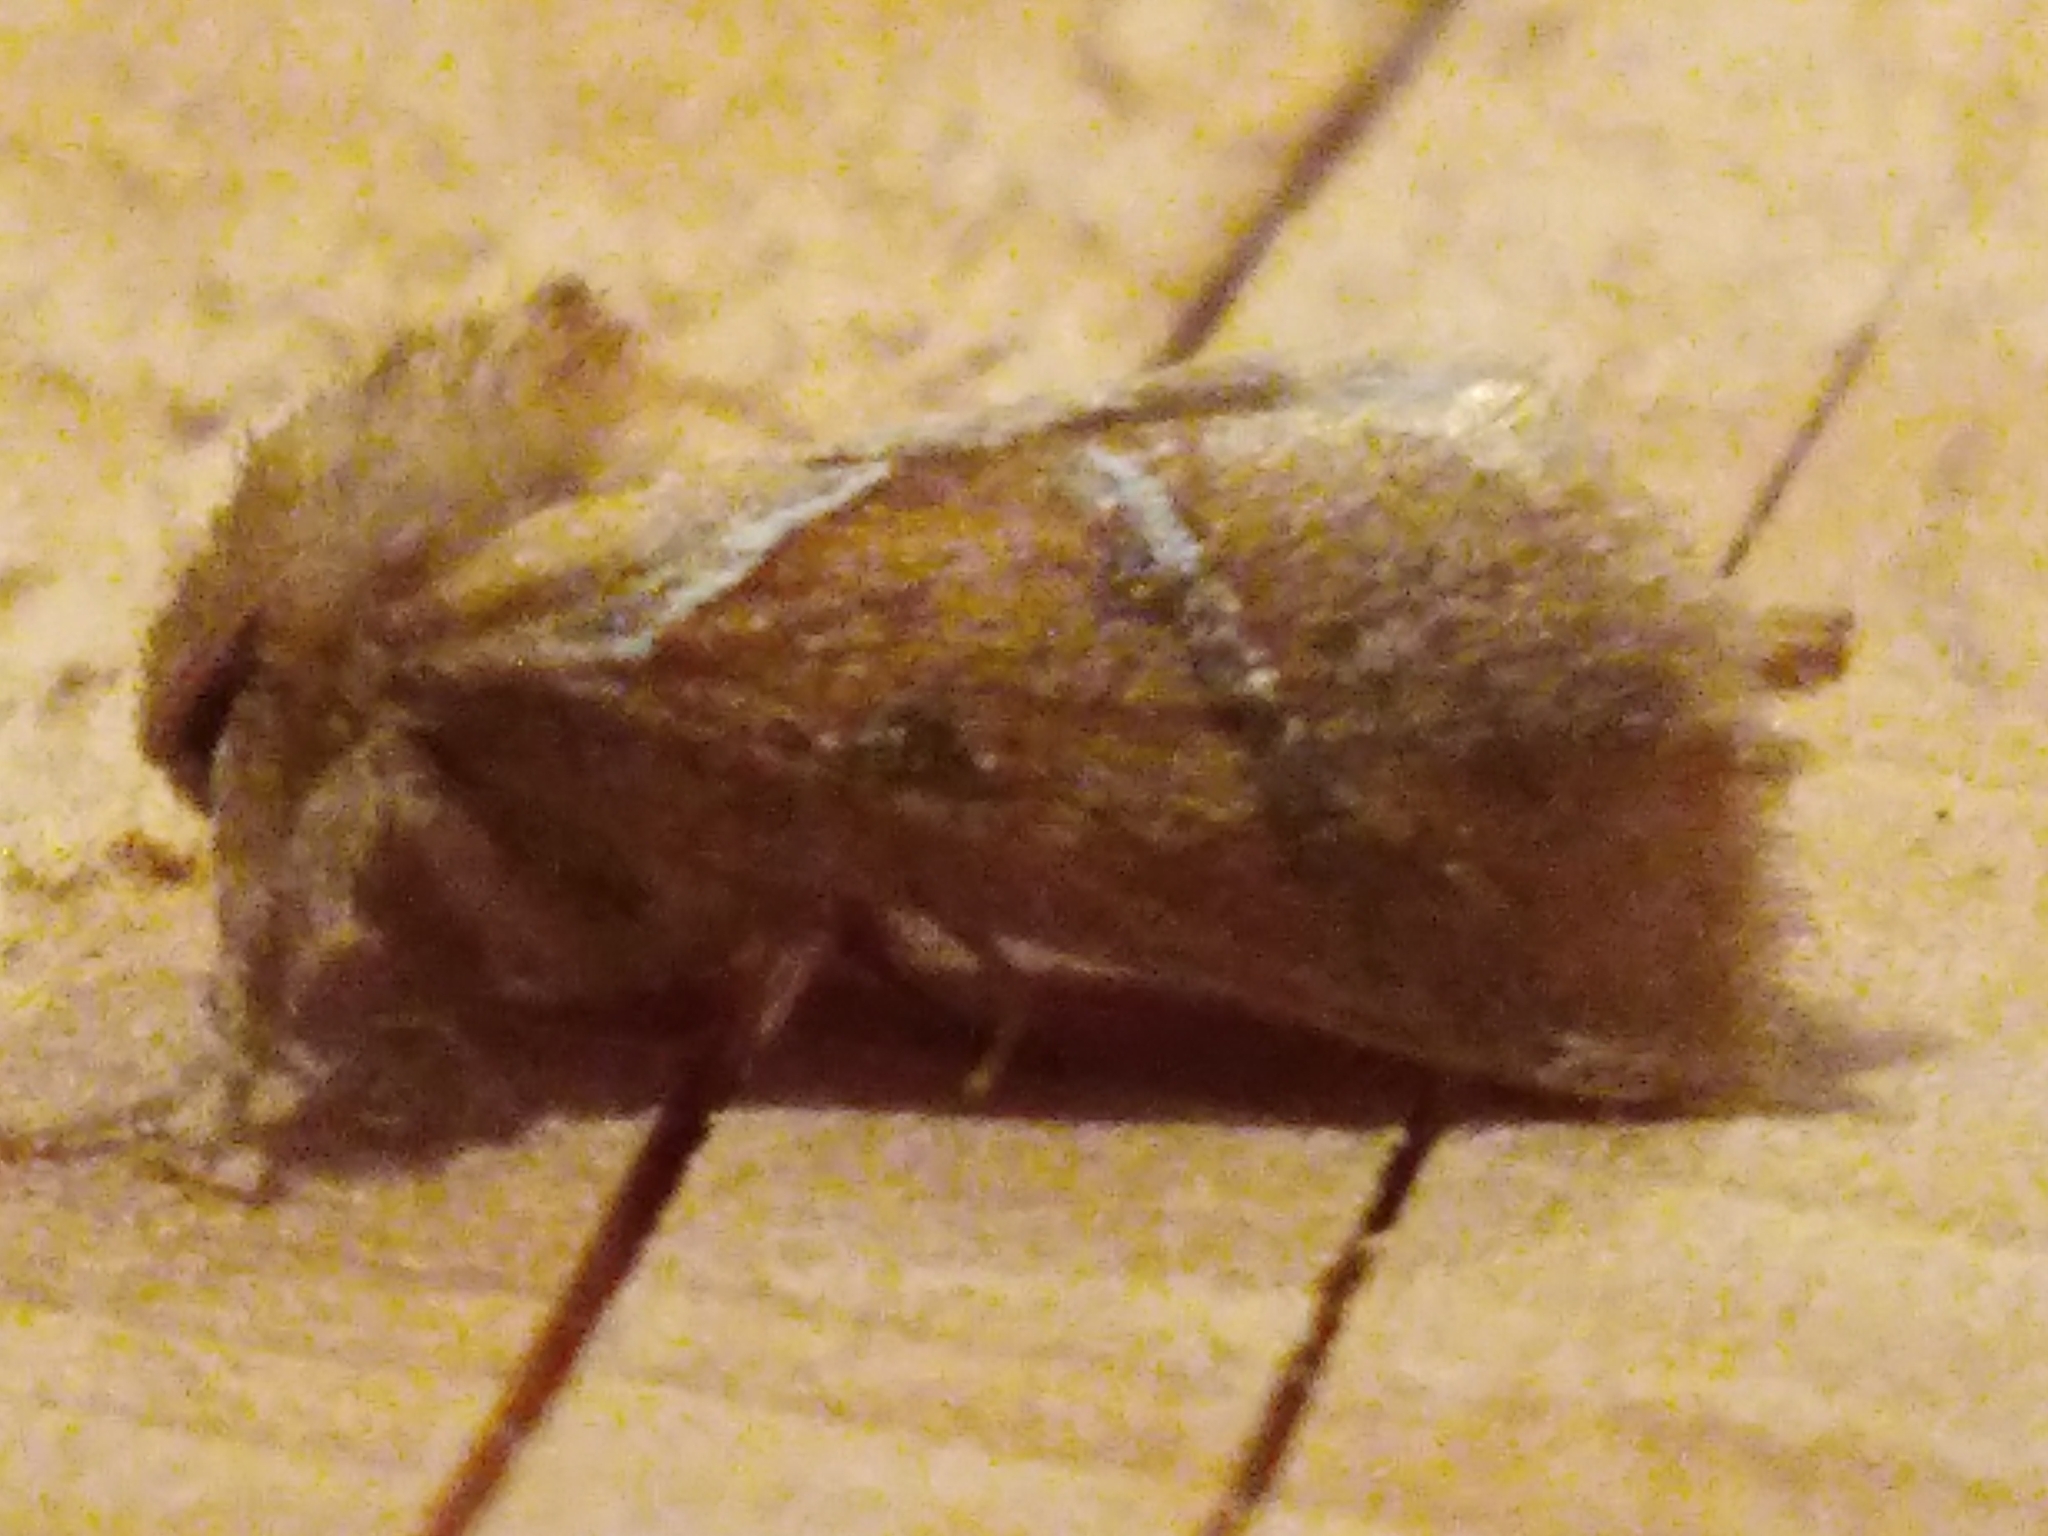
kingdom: Animalia
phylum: Arthropoda
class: Insecta
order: Lepidoptera
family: Hepialidae
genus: Triodia
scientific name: Triodia sylvina
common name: Orange swift
